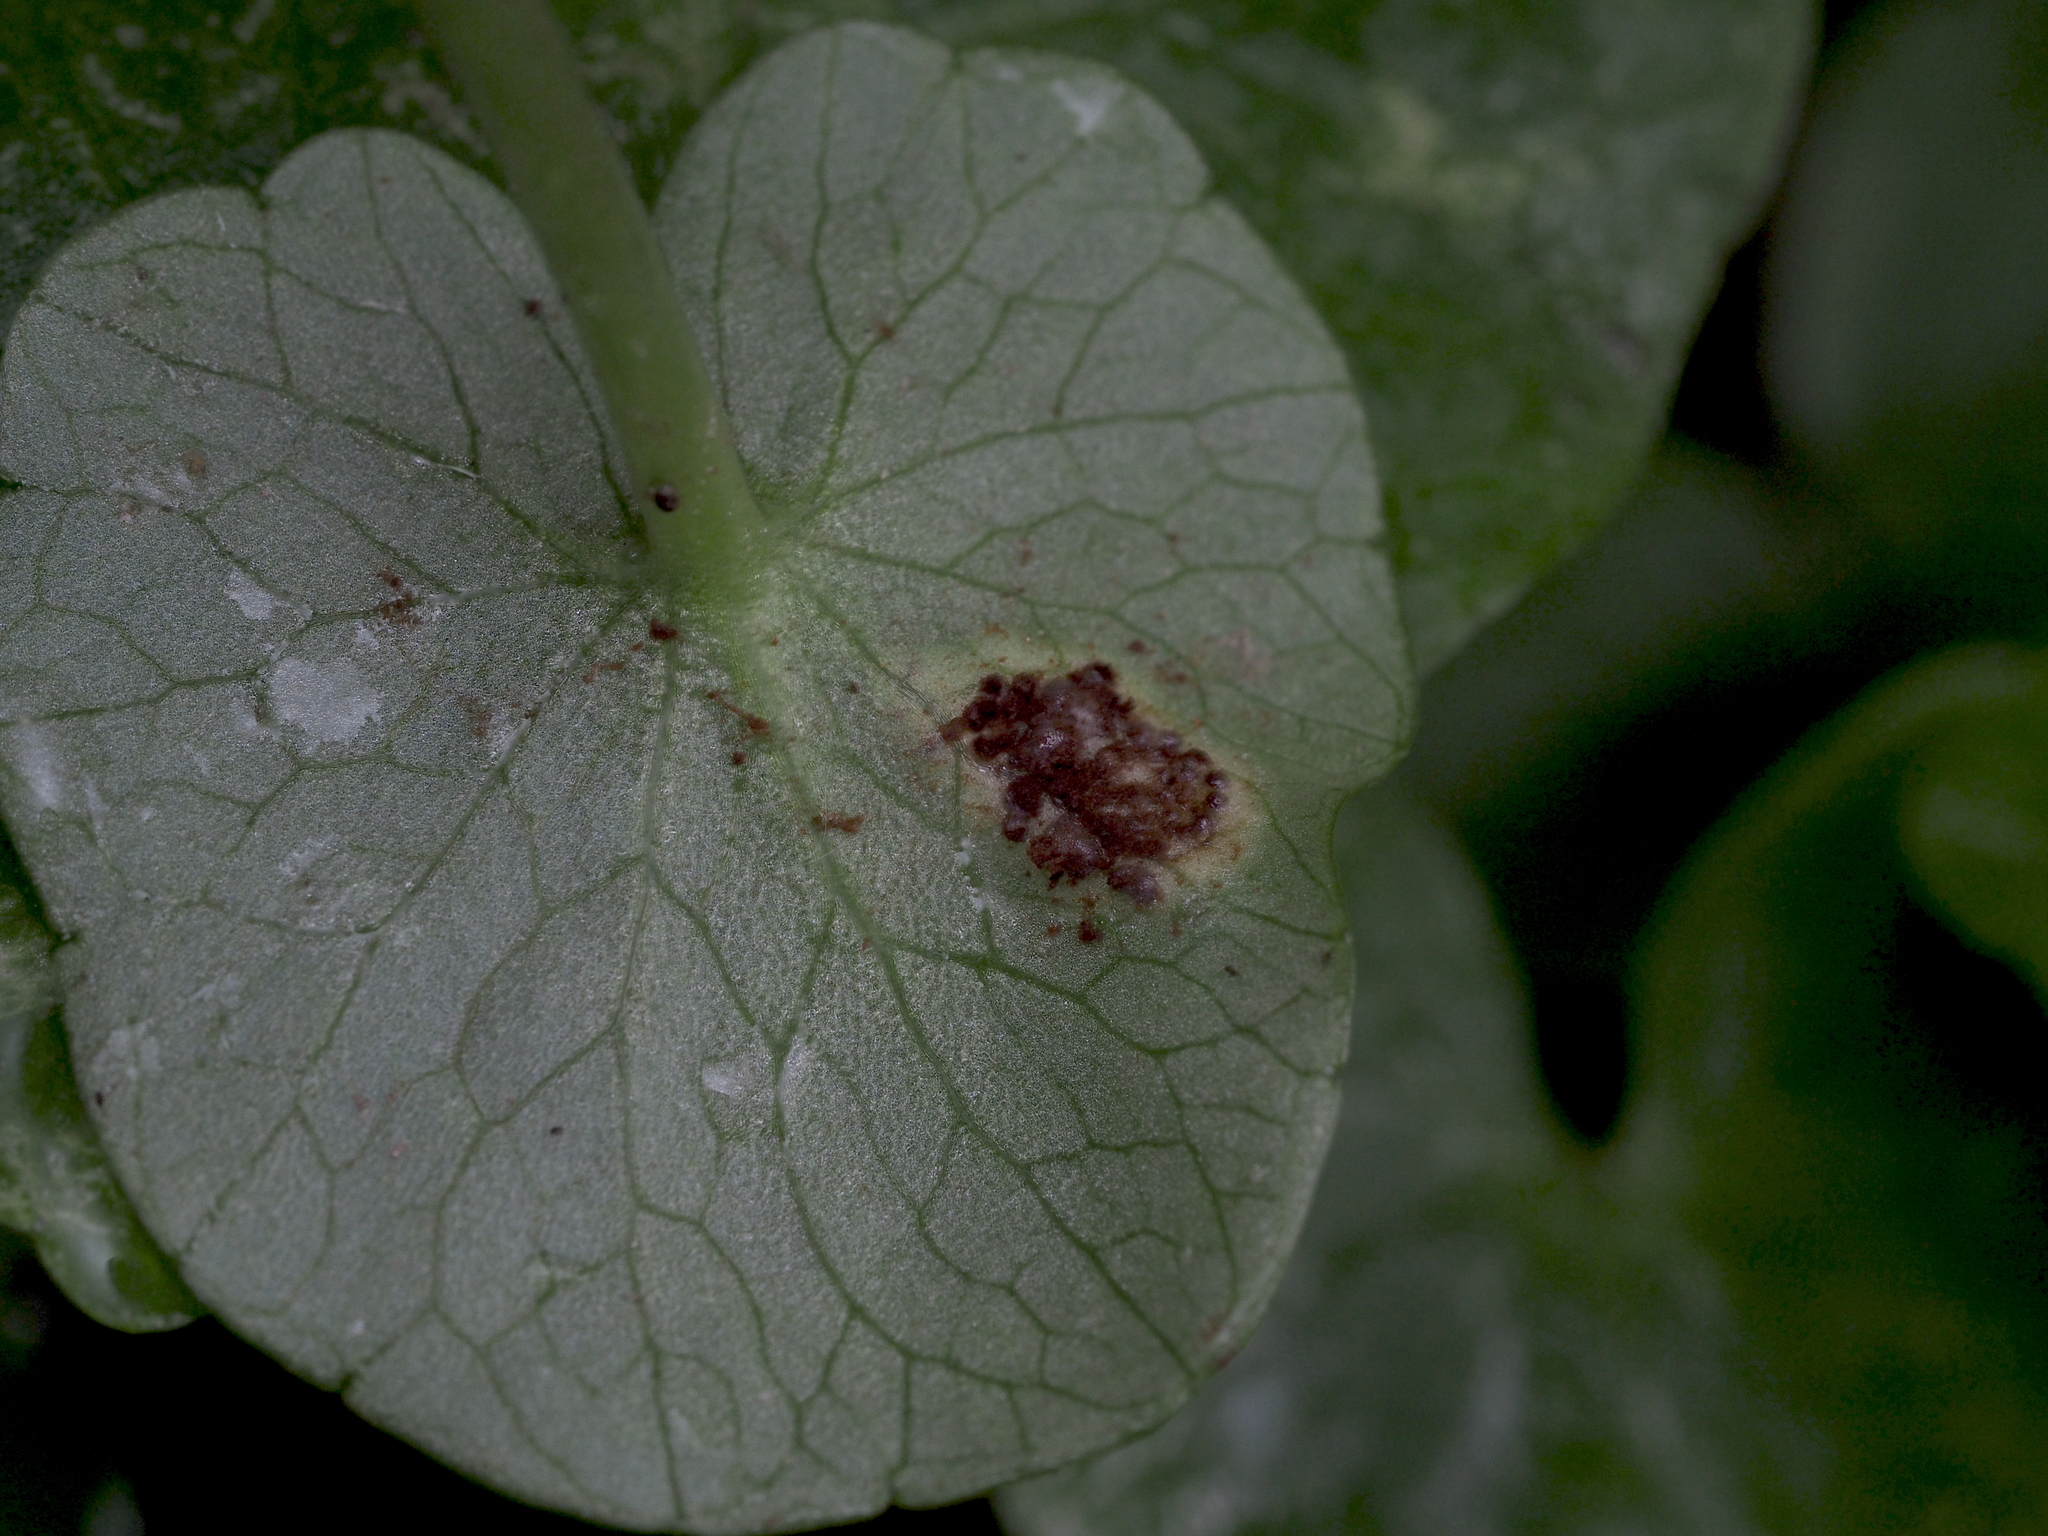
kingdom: Fungi
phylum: Basidiomycota
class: Pucciniomycetes
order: Pucciniales
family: Pucciniaceae
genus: Uromyces
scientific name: Uromyces ficariae
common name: Bitter chocolate rust
